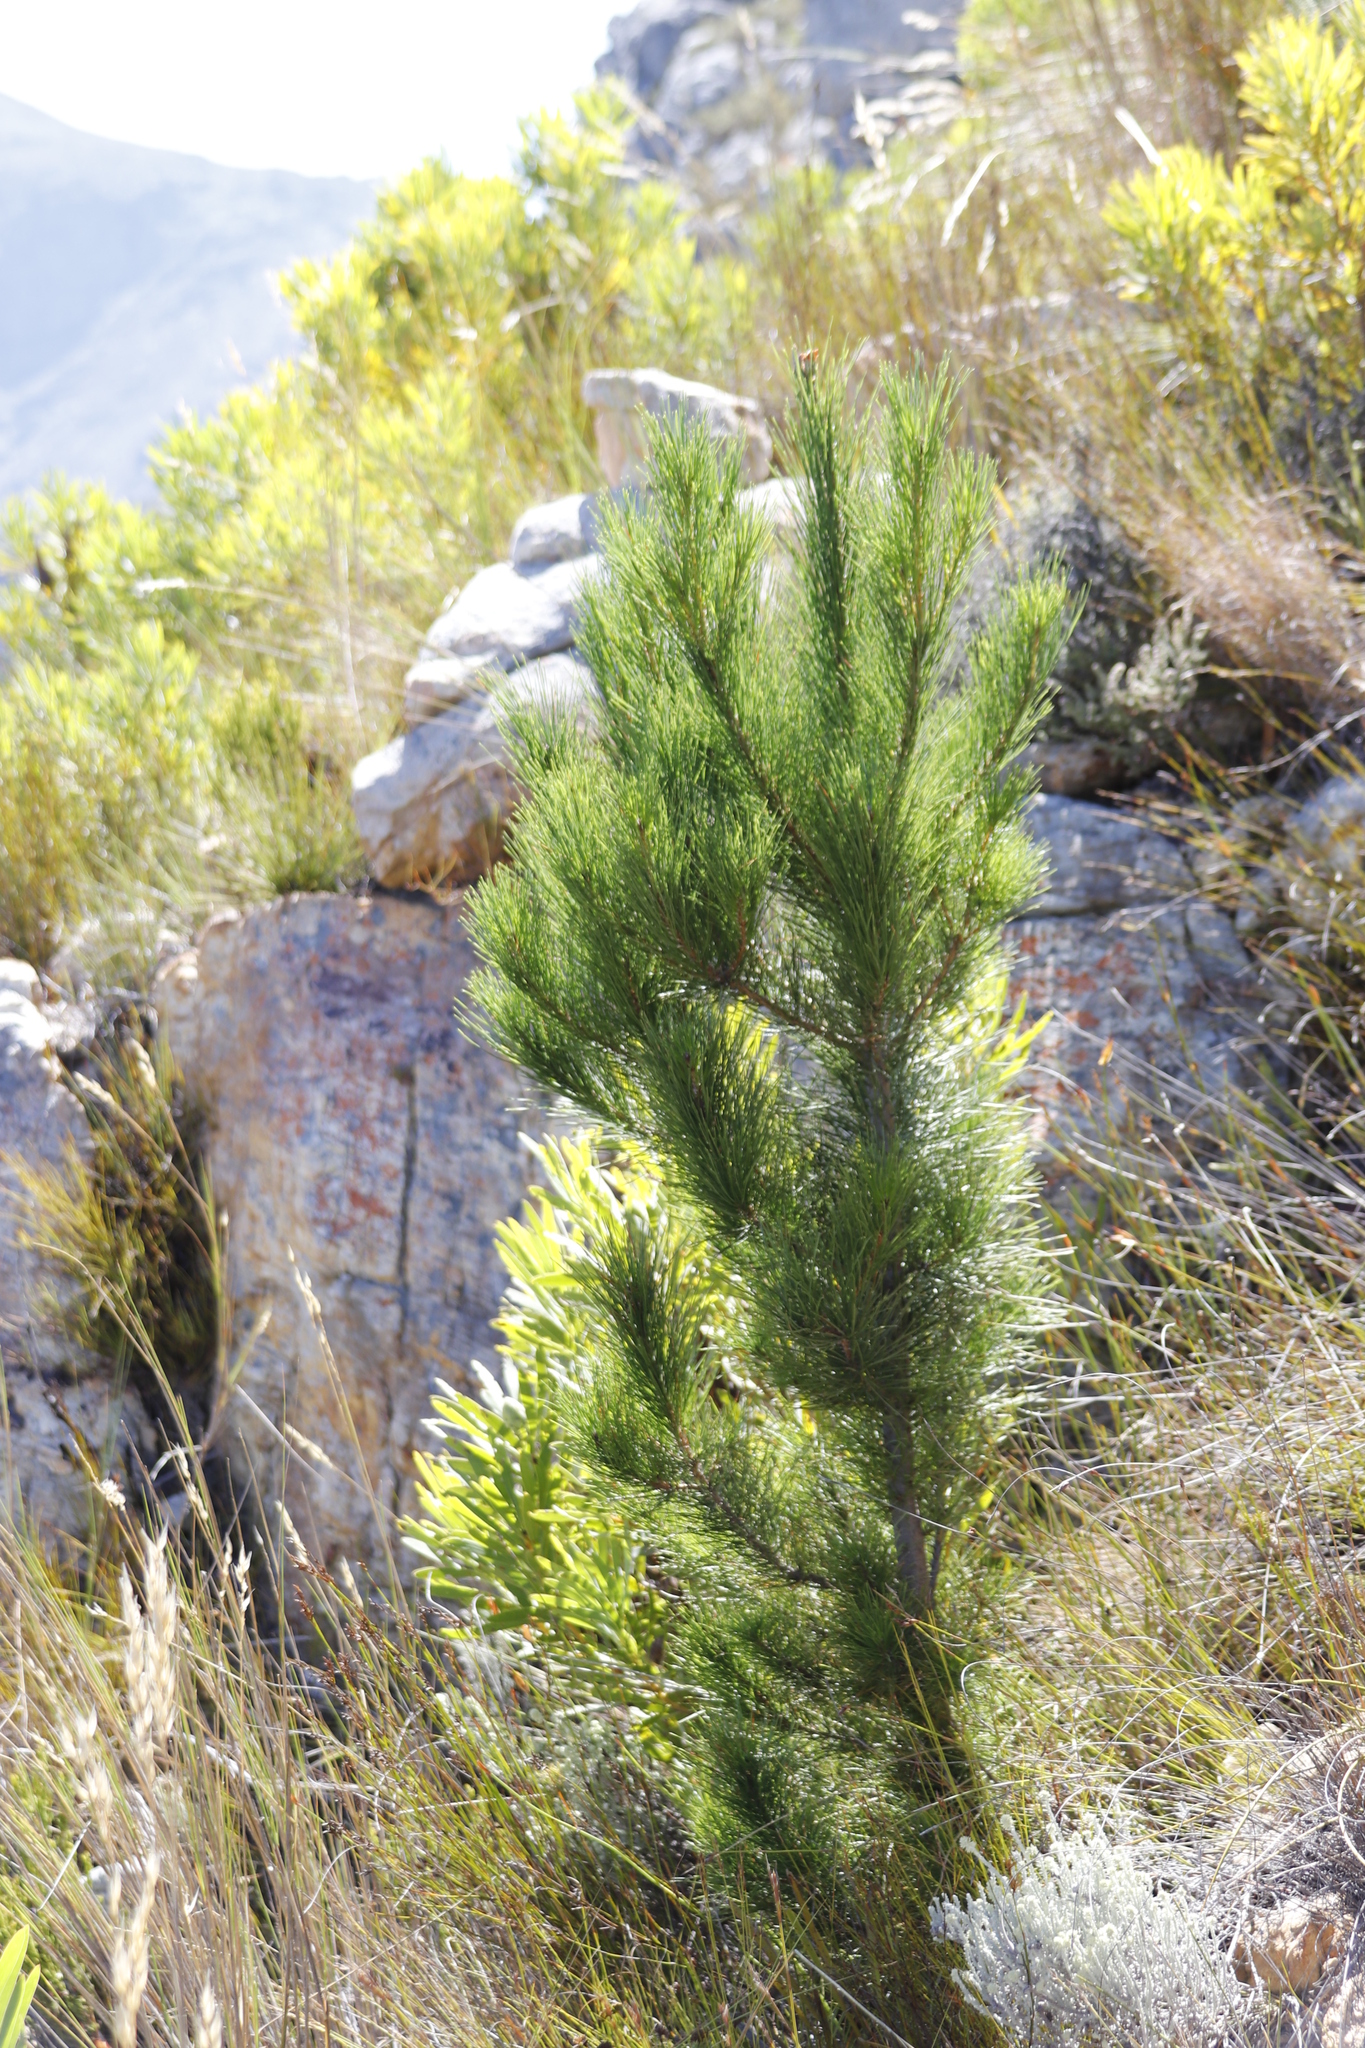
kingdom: Plantae
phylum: Tracheophyta
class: Pinopsida
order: Pinales
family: Pinaceae
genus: Pinus
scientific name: Pinus radiata
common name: Monterey pine
